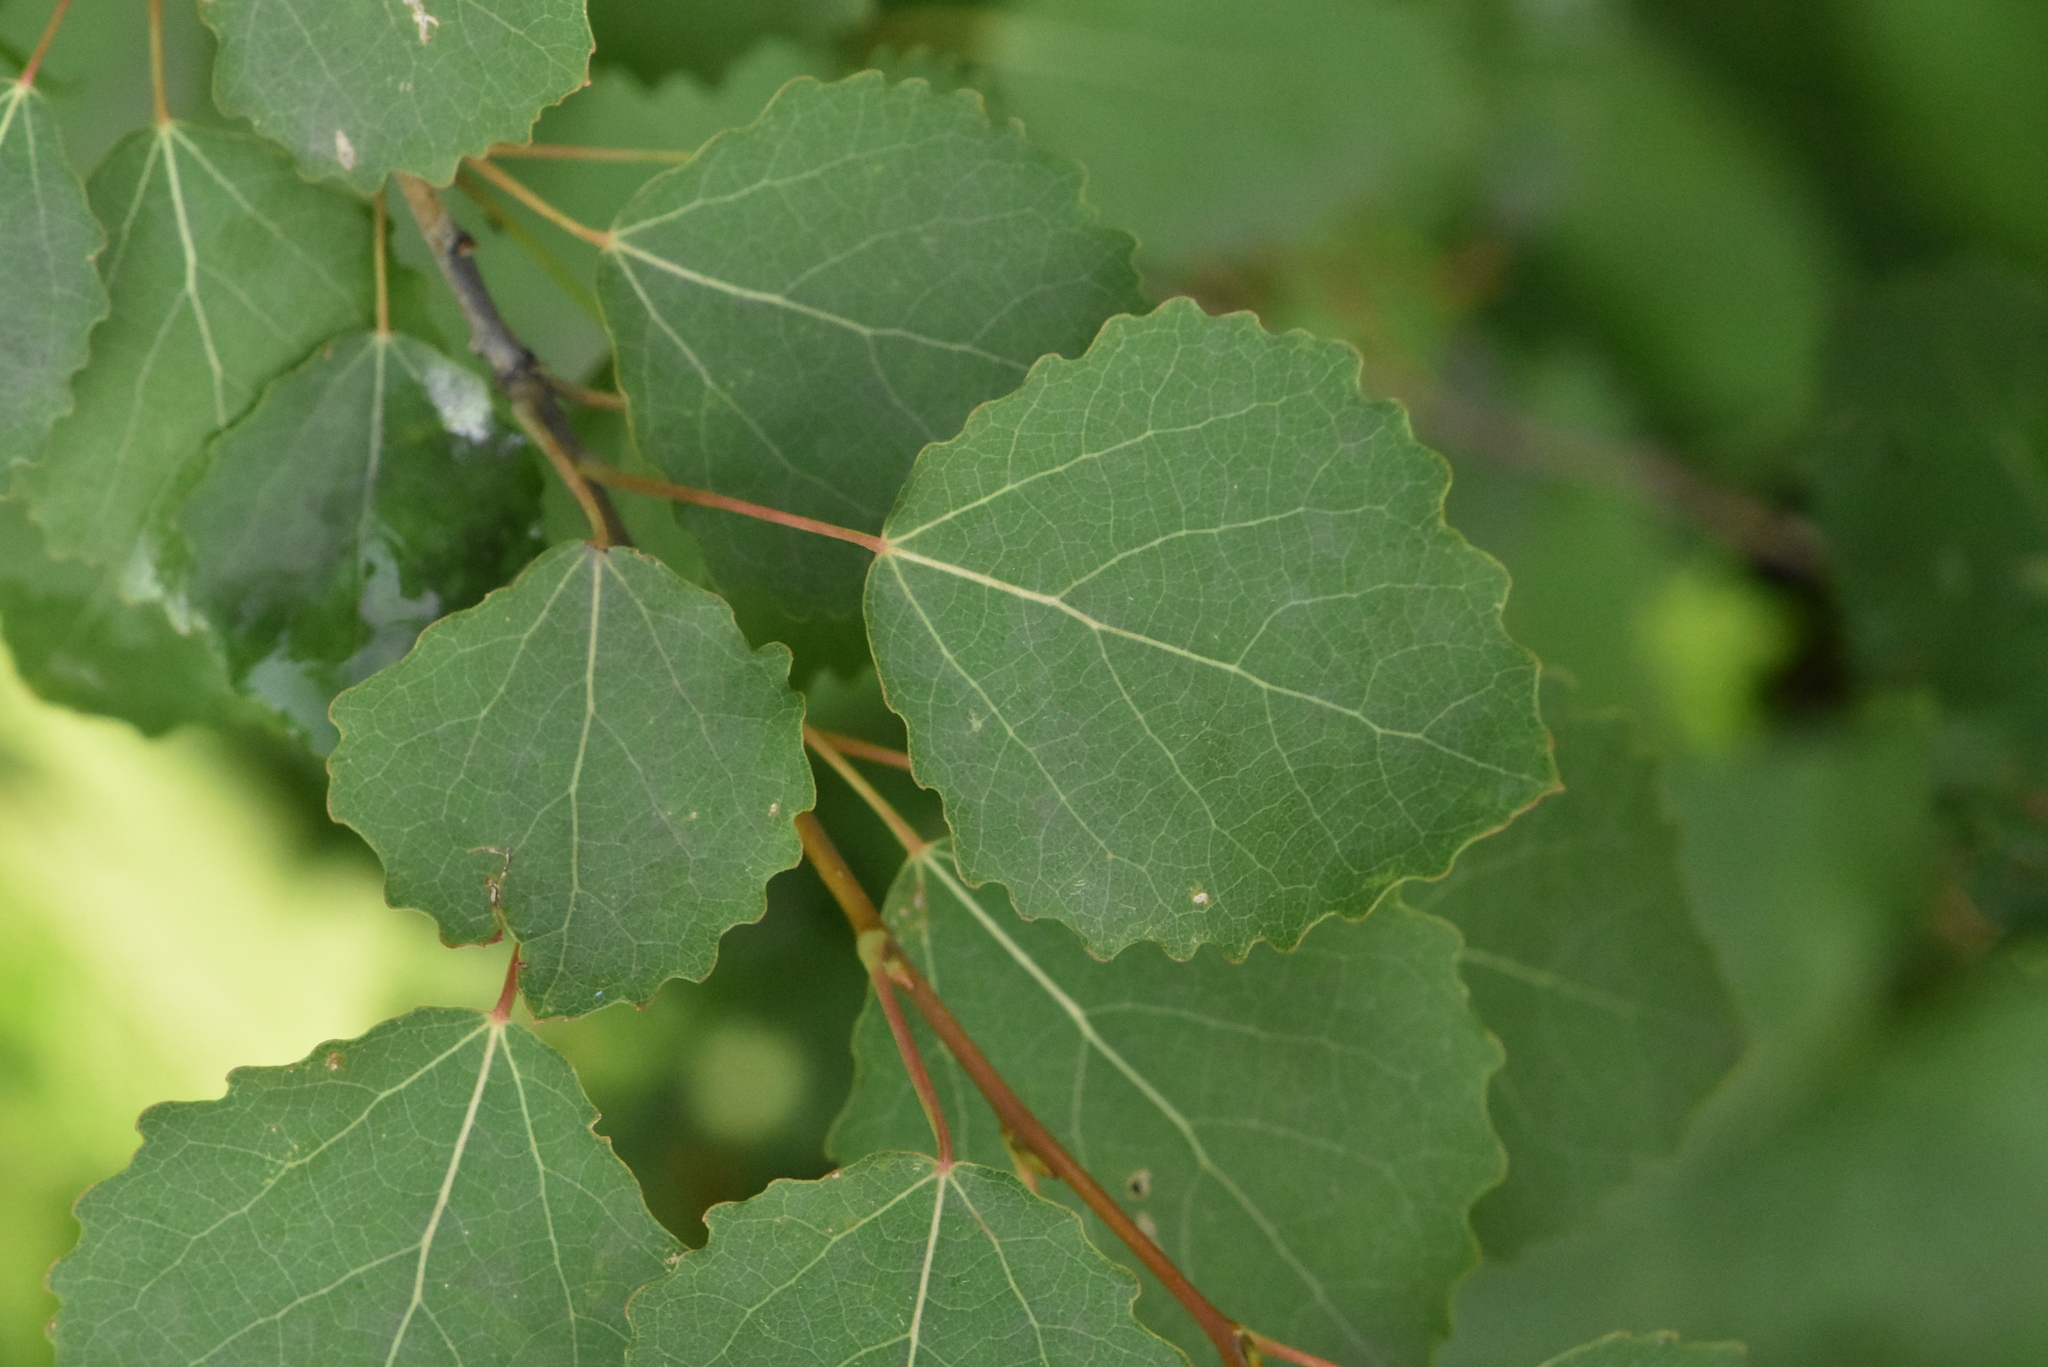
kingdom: Plantae
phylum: Tracheophyta
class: Magnoliopsida
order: Malpighiales
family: Salicaceae
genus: Populus
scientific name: Populus tremula
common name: European aspen
